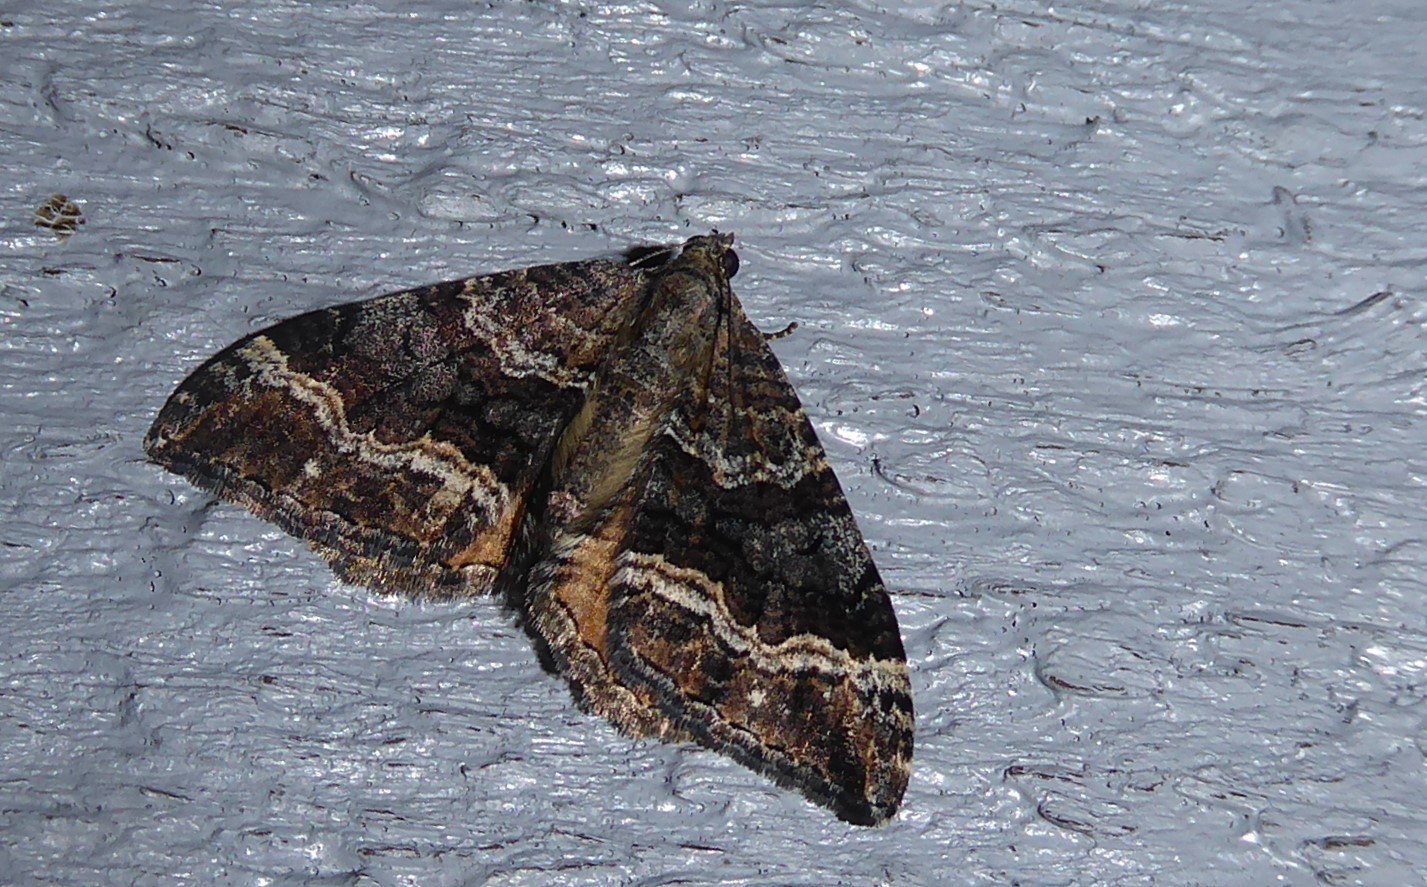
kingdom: Animalia
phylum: Arthropoda
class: Insecta
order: Lepidoptera
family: Geometridae
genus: Hydriomena
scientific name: Hydriomena deltoidata
